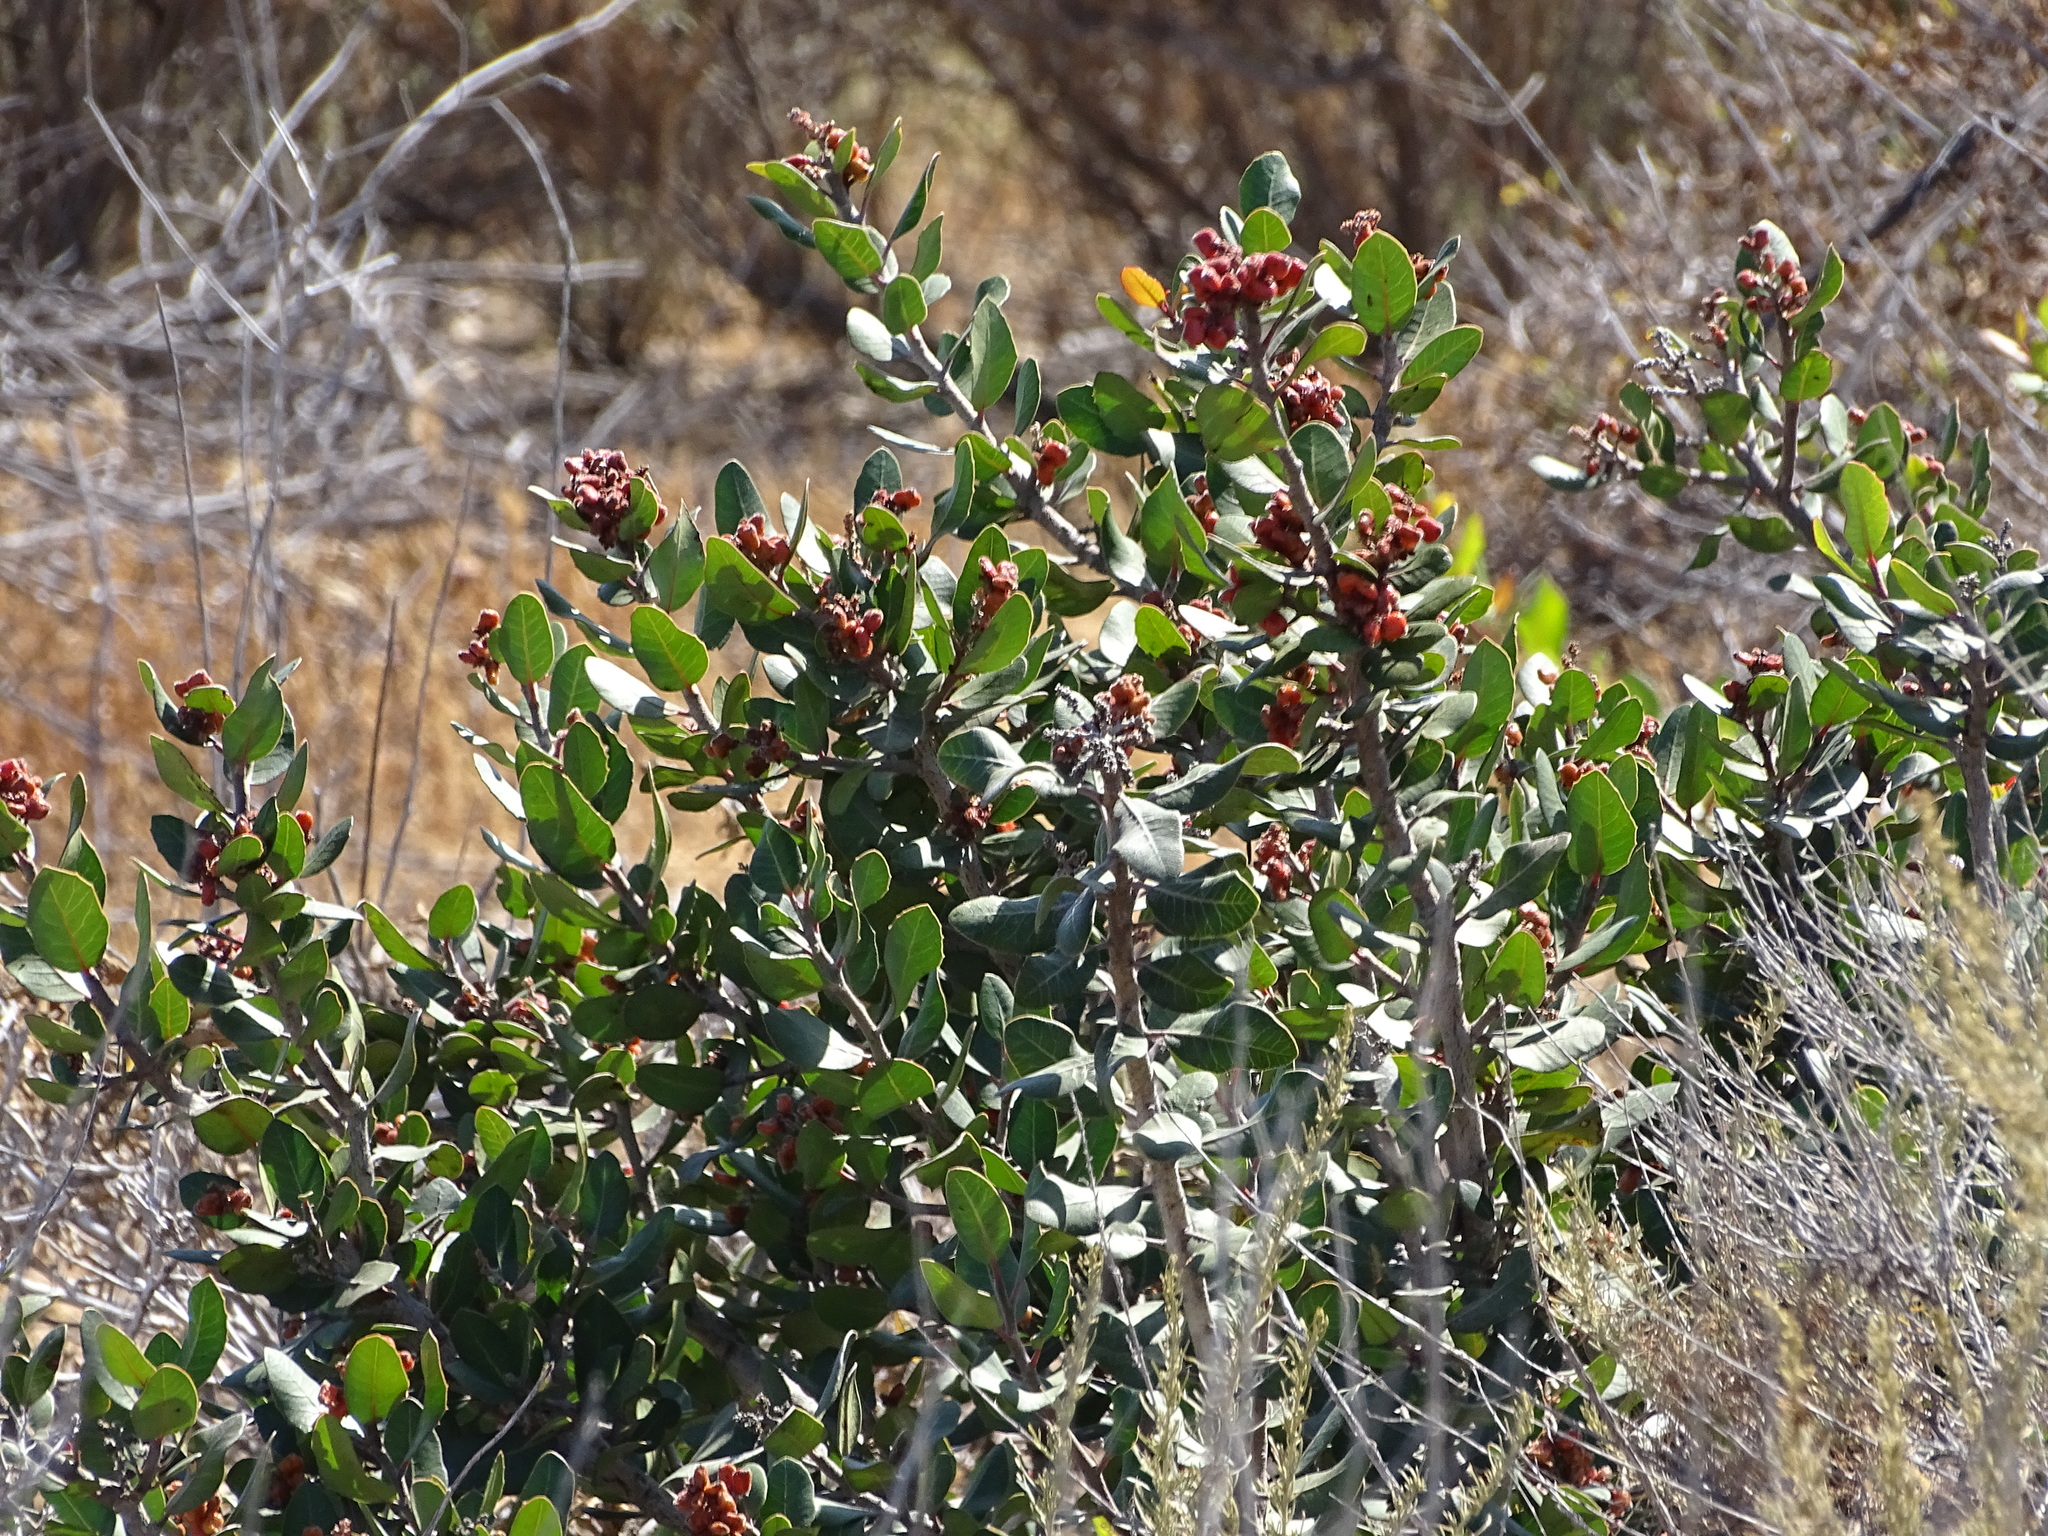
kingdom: Plantae
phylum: Tracheophyta
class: Magnoliopsida
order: Sapindales
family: Anacardiaceae
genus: Rhus
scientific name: Rhus integrifolia
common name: Lemonade sumac
